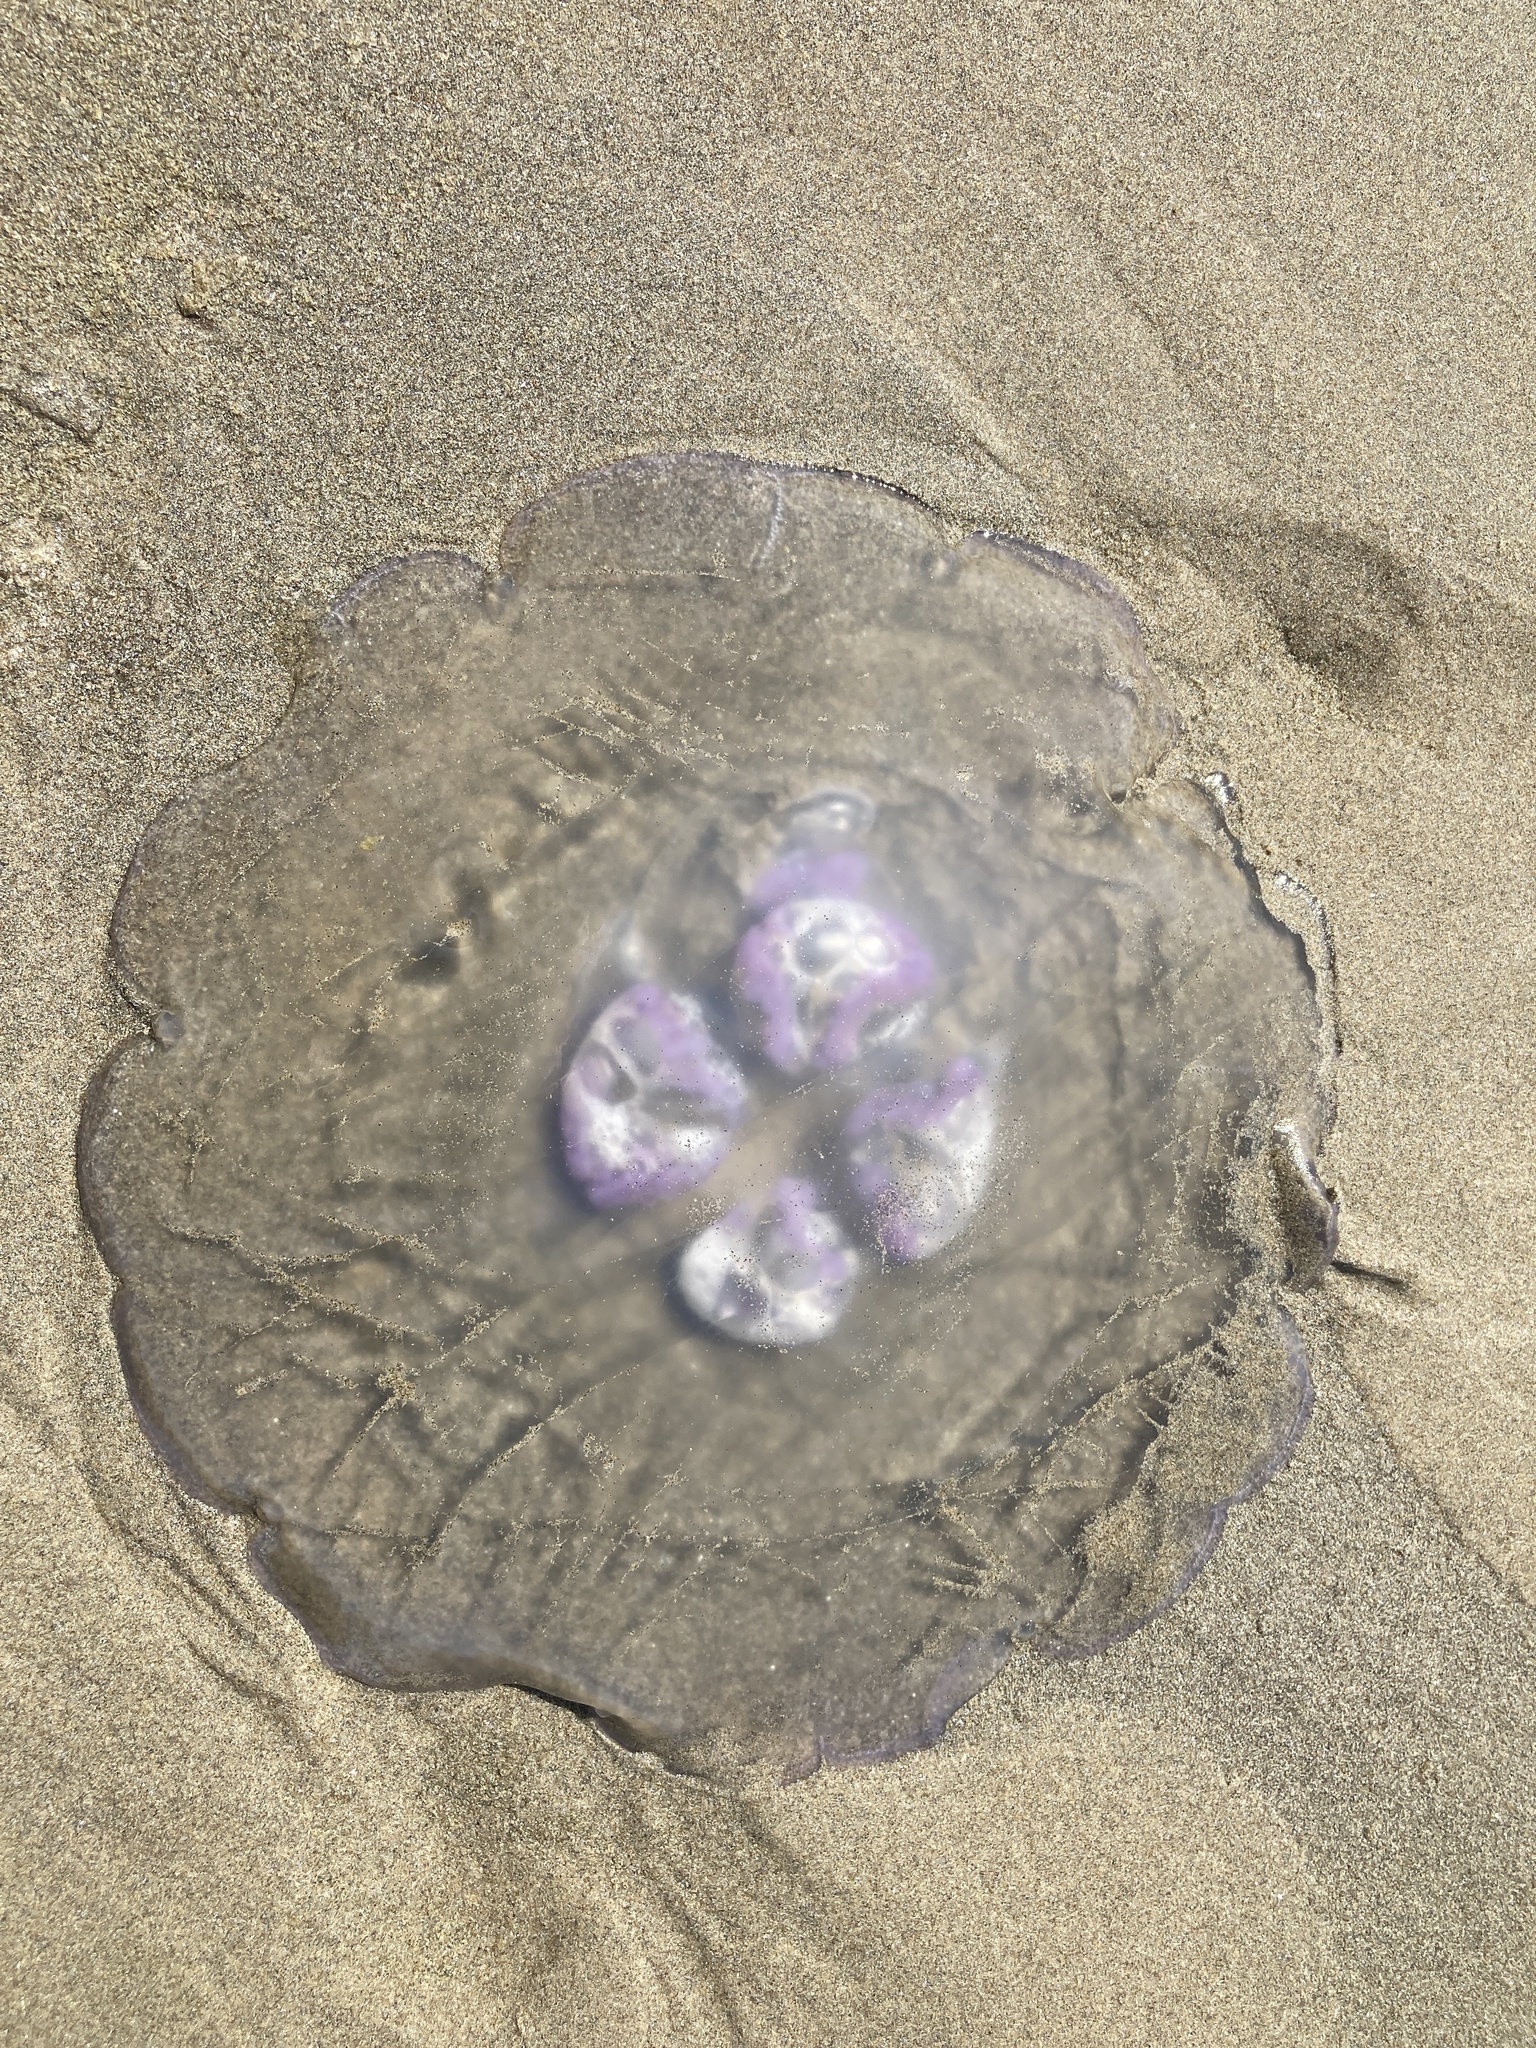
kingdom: Animalia
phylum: Cnidaria
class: Scyphozoa
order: Semaeostomeae
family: Ulmaridae
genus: Aurelia
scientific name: Aurelia labiata
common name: Pacific moon jelly
